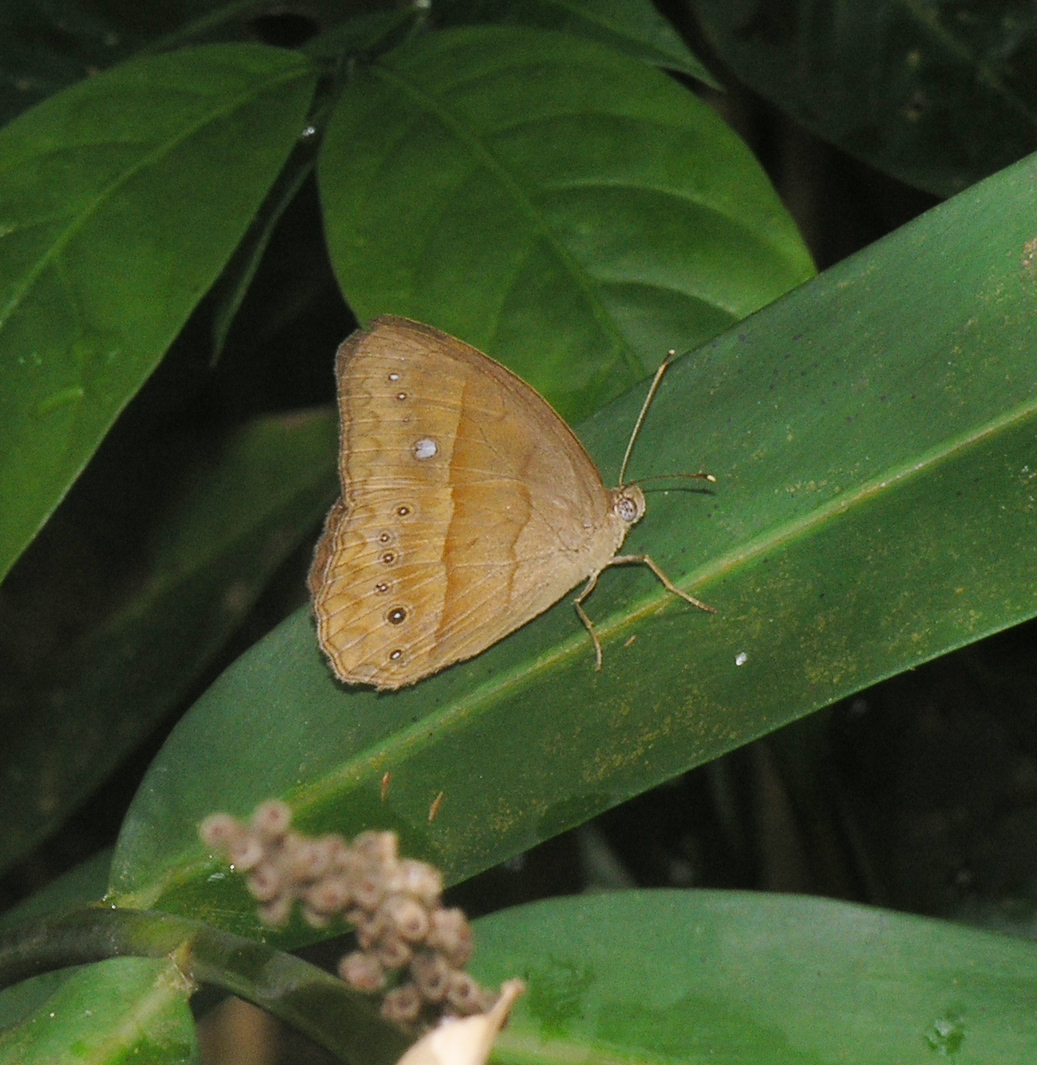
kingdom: Animalia
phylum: Arthropoda
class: Insecta
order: Lepidoptera
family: Nymphalidae
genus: Mycalesis
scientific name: Mycalesis mnasicles
